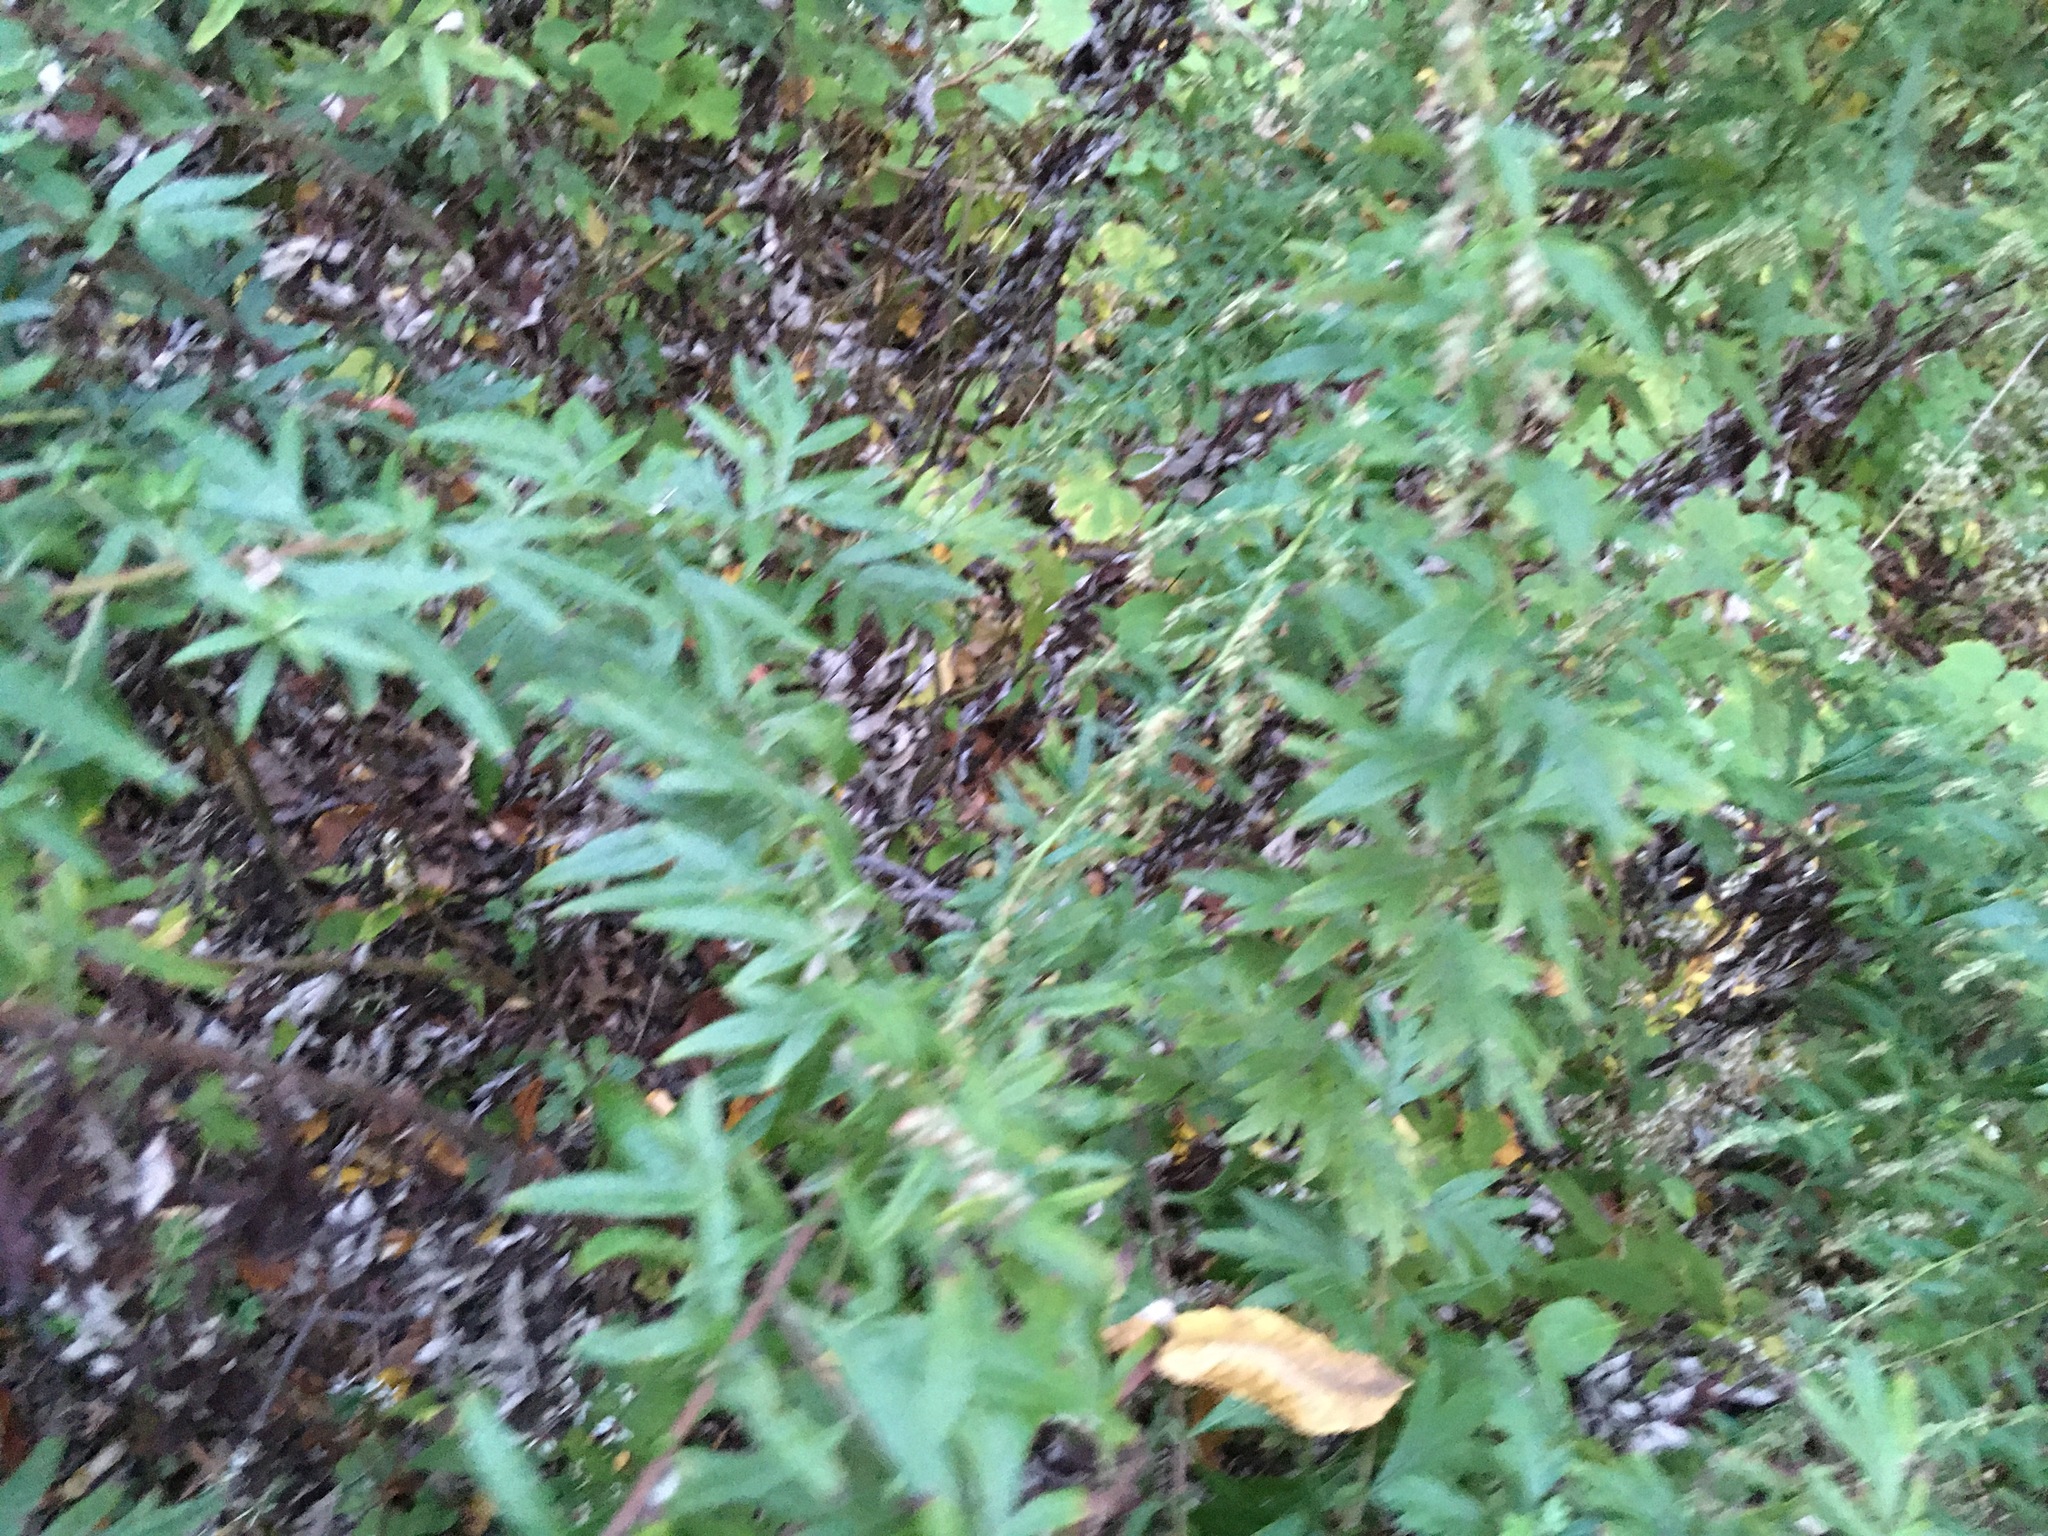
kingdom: Plantae
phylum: Tracheophyta
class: Magnoliopsida
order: Asterales
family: Asteraceae
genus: Artemisia
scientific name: Artemisia vulgaris
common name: Mugwort
